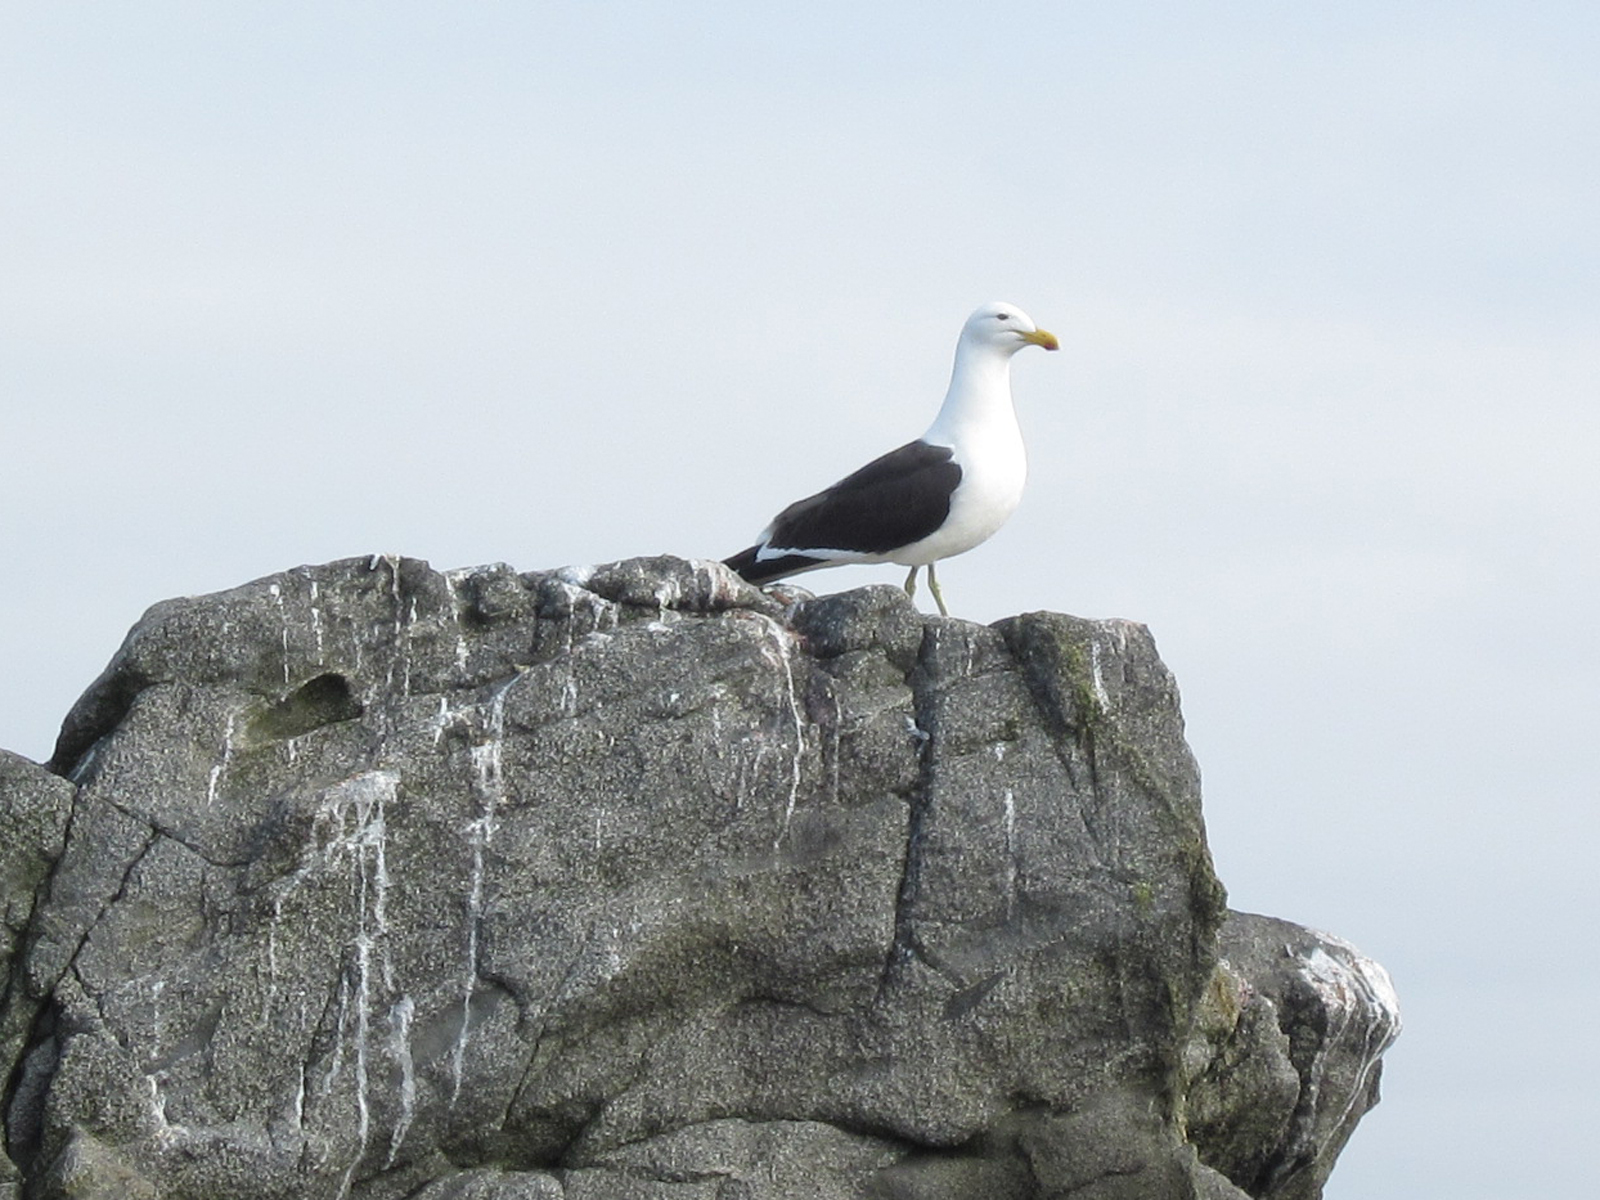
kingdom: Animalia
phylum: Chordata
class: Aves
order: Charadriiformes
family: Laridae
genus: Larus
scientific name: Larus dominicanus
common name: Kelp gull
